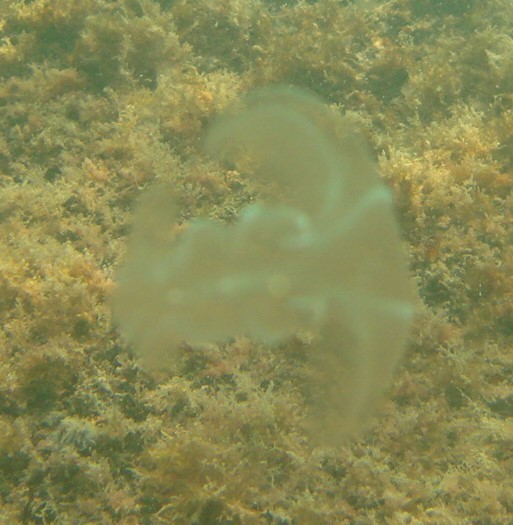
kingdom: Animalia
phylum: Ctenophora
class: Tentaculata
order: Lobata
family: Bolinopsidae
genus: Mnemiopsis
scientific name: Mnemiopsis leidyi
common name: American comb jelly
